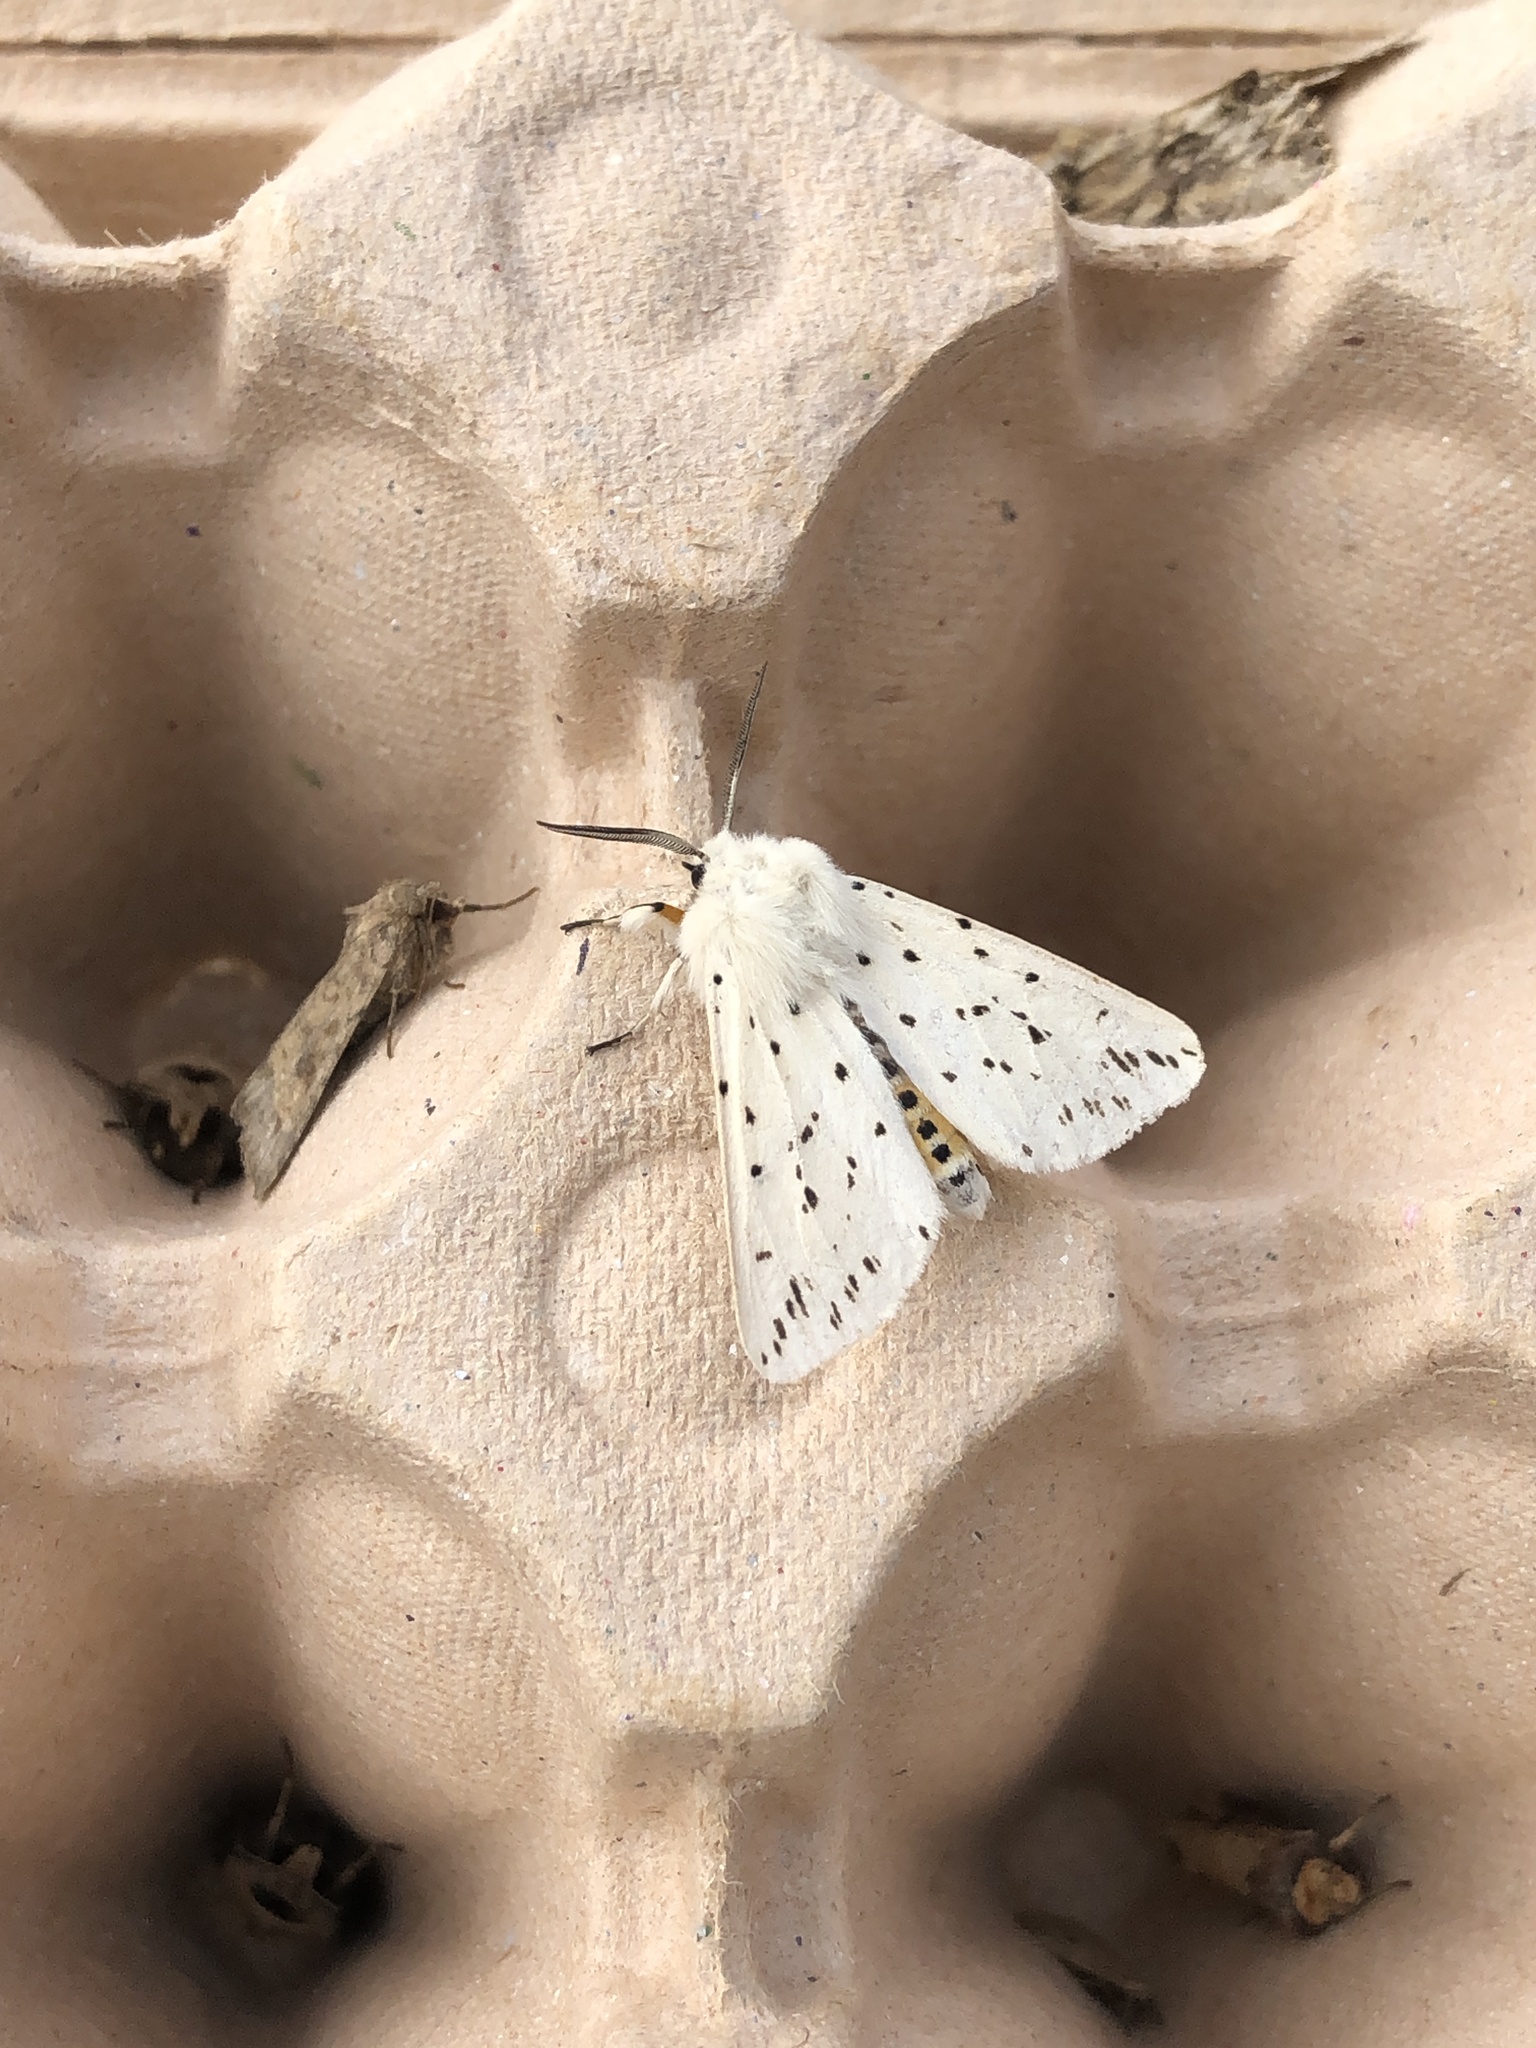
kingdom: Animalia
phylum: Arthropoda
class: Insecta
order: Lepidoptera
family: Erebidae
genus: Spilosoma
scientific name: Spilosoma lubricipeda
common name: White ermine
